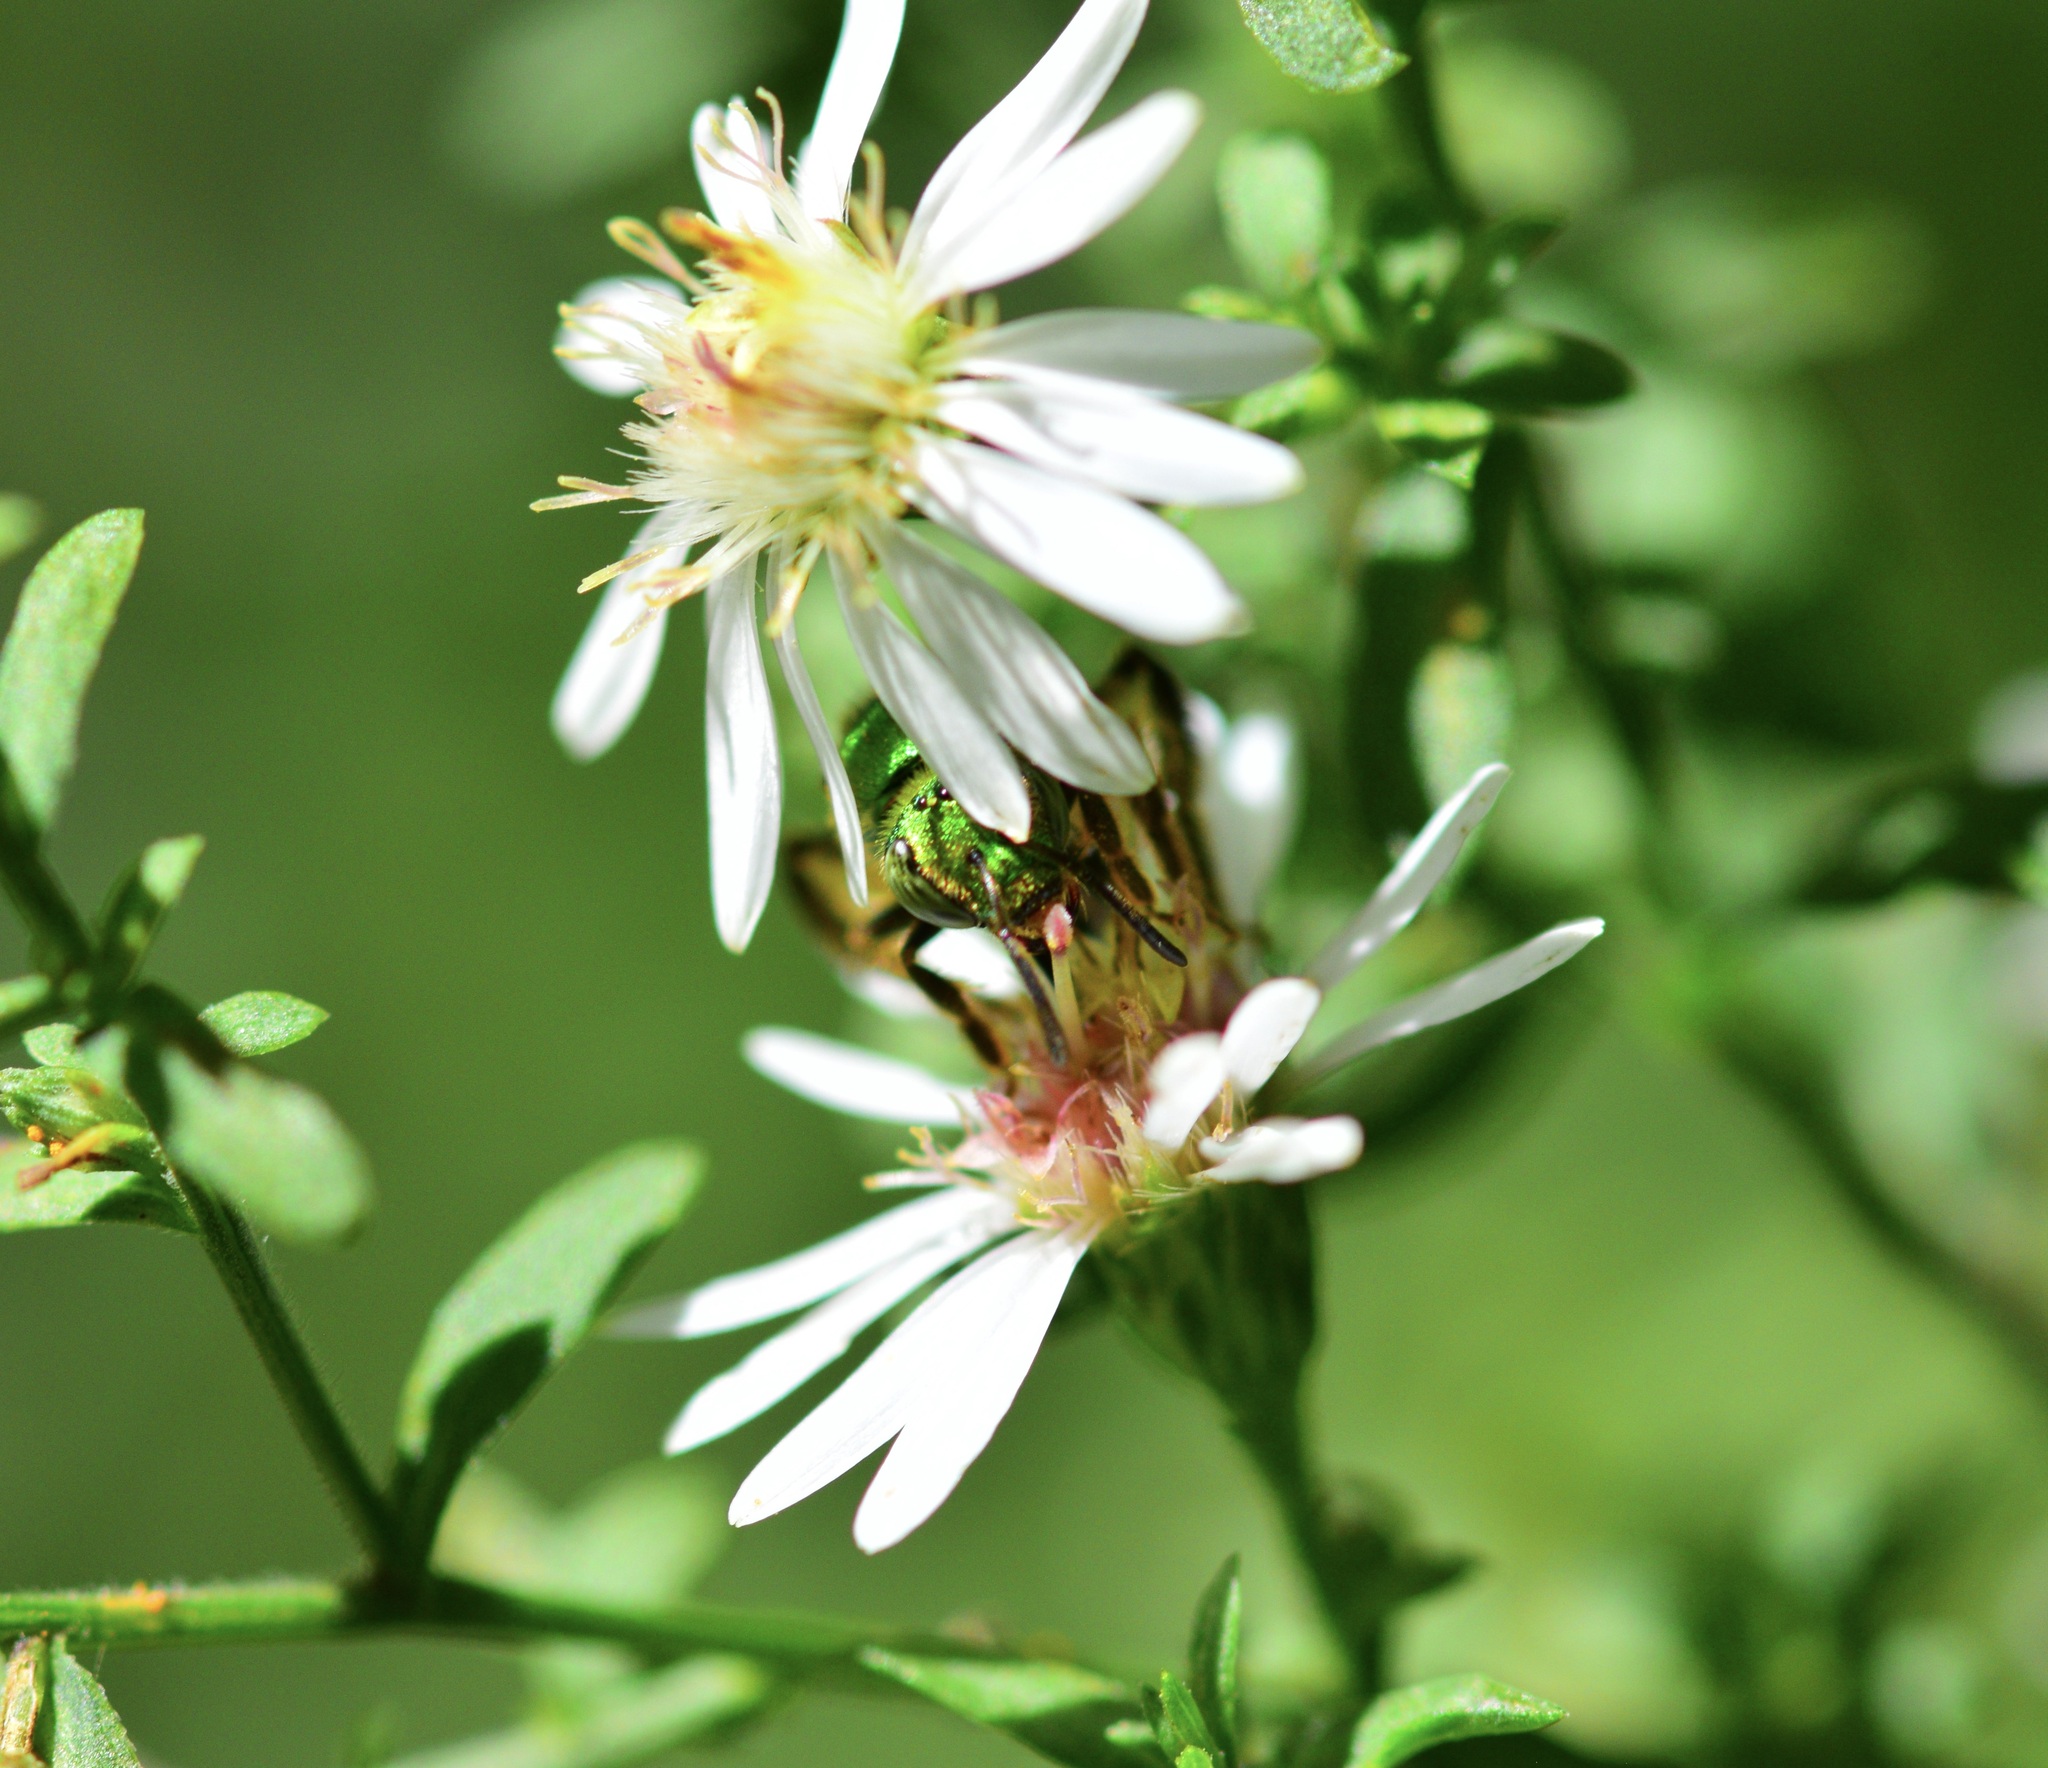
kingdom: Animalia
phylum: Arthropoda
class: Insecta
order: Hymenoptera
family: Halictidae
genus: Agapostemon
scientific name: Agapostemon sericeus
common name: Silky striped sweat bee
